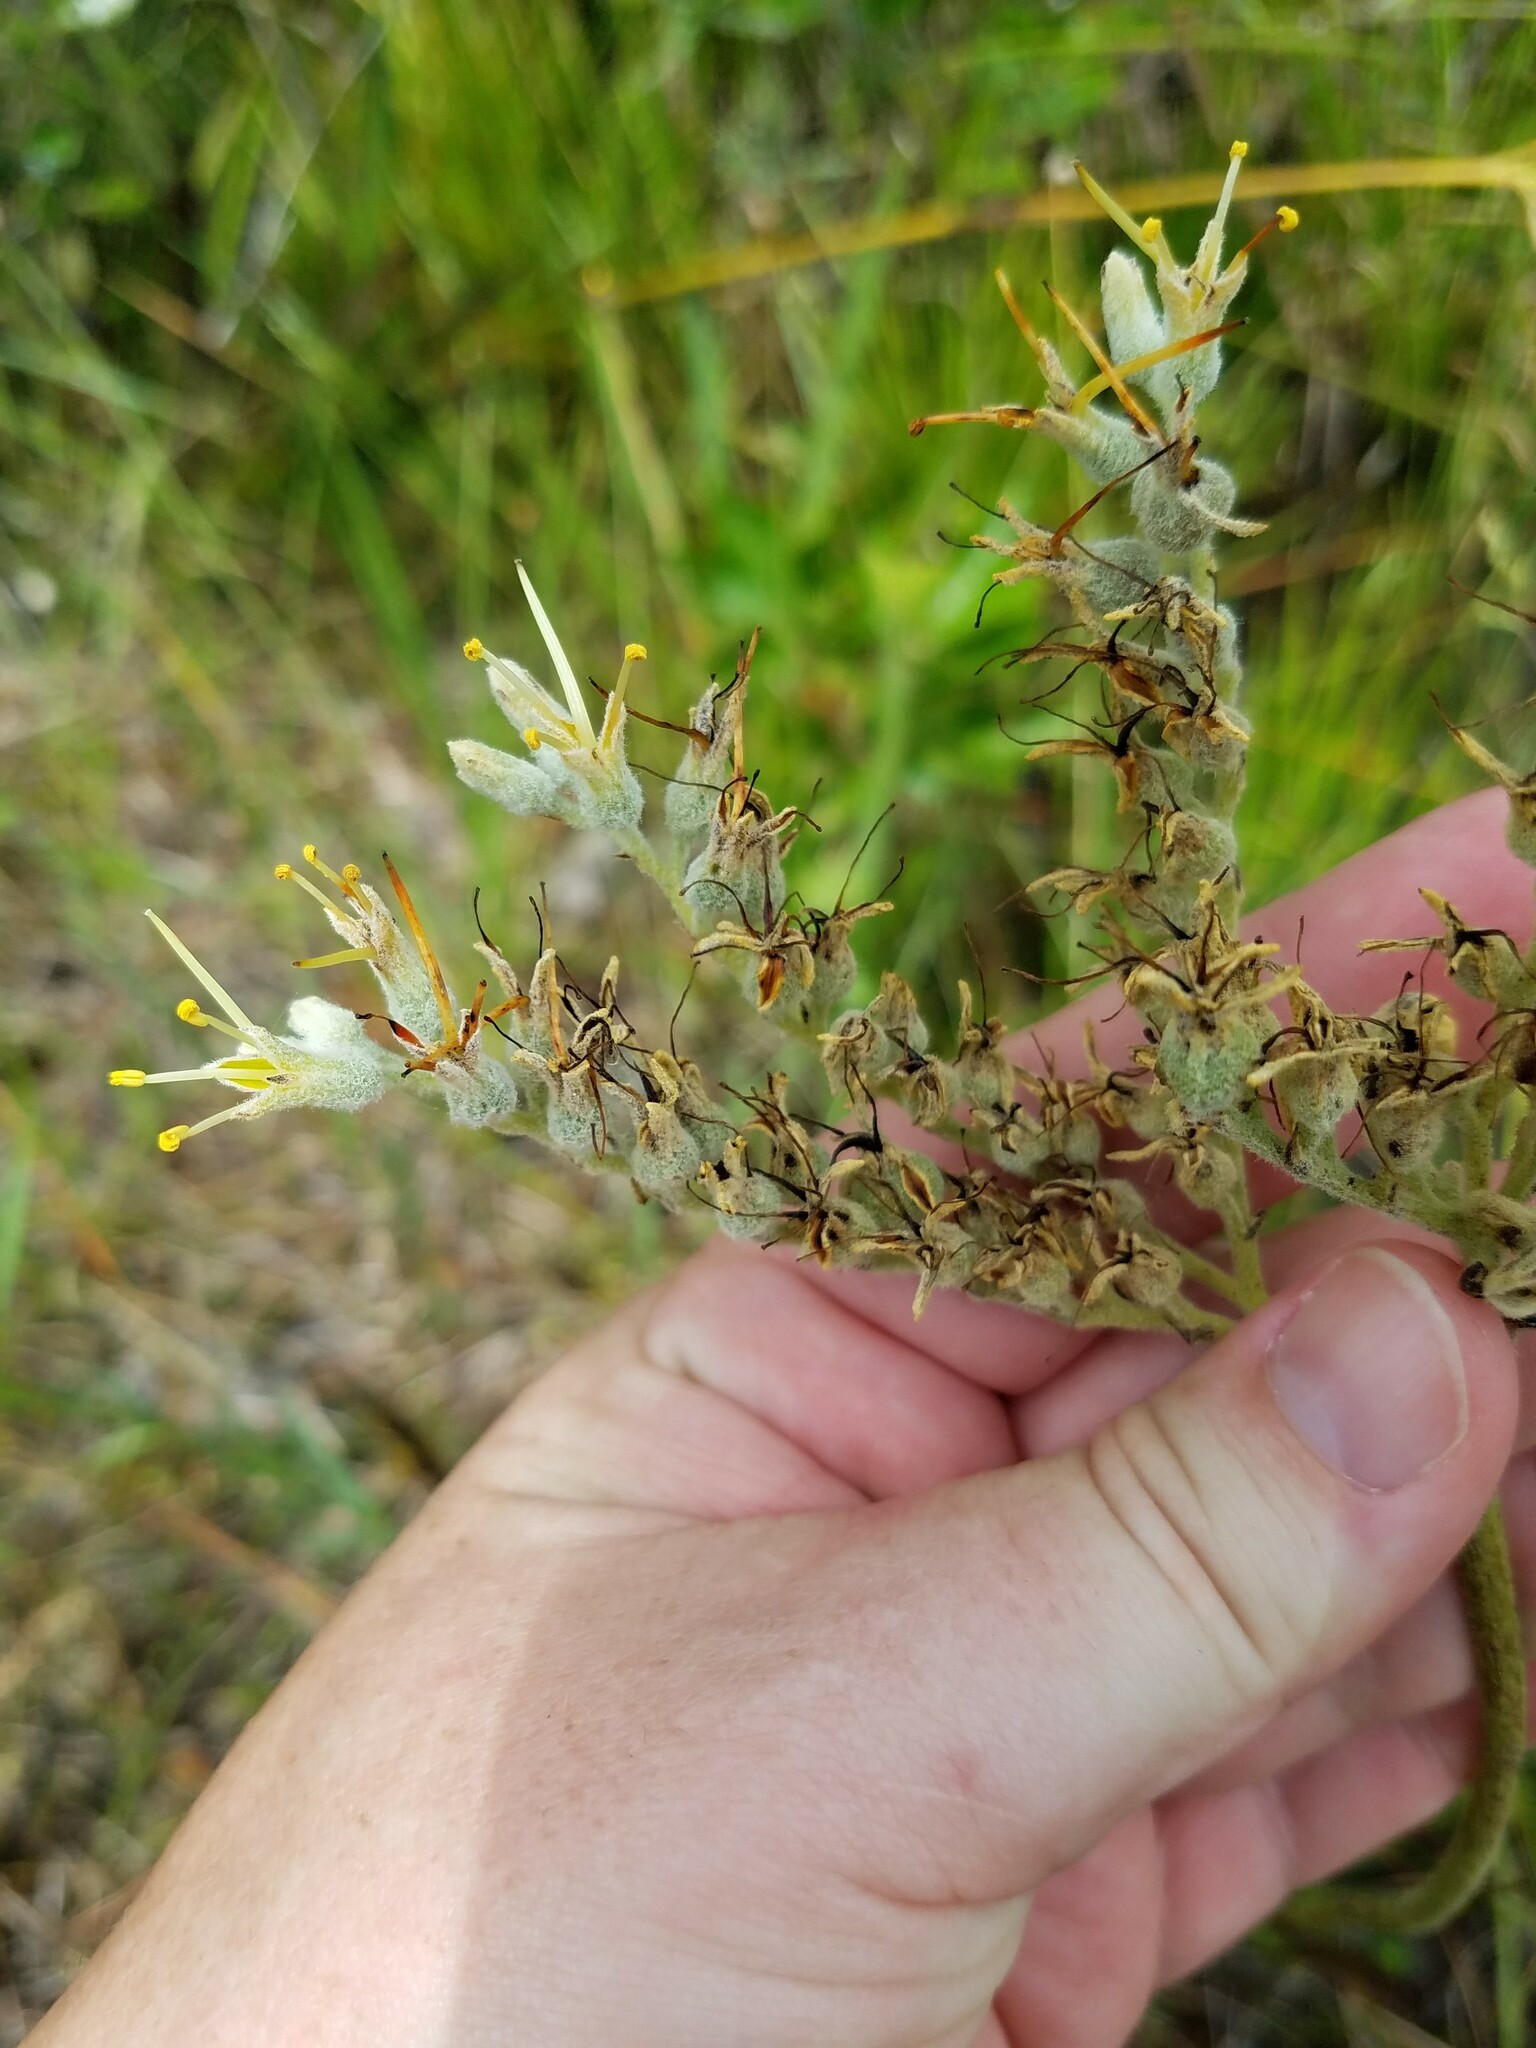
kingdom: Plantae
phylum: Tracheophyta
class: Liliopsida
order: Commelinales
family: Haemodoraceae
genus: Lachnanthes
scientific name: Lachnanthes caroliana
